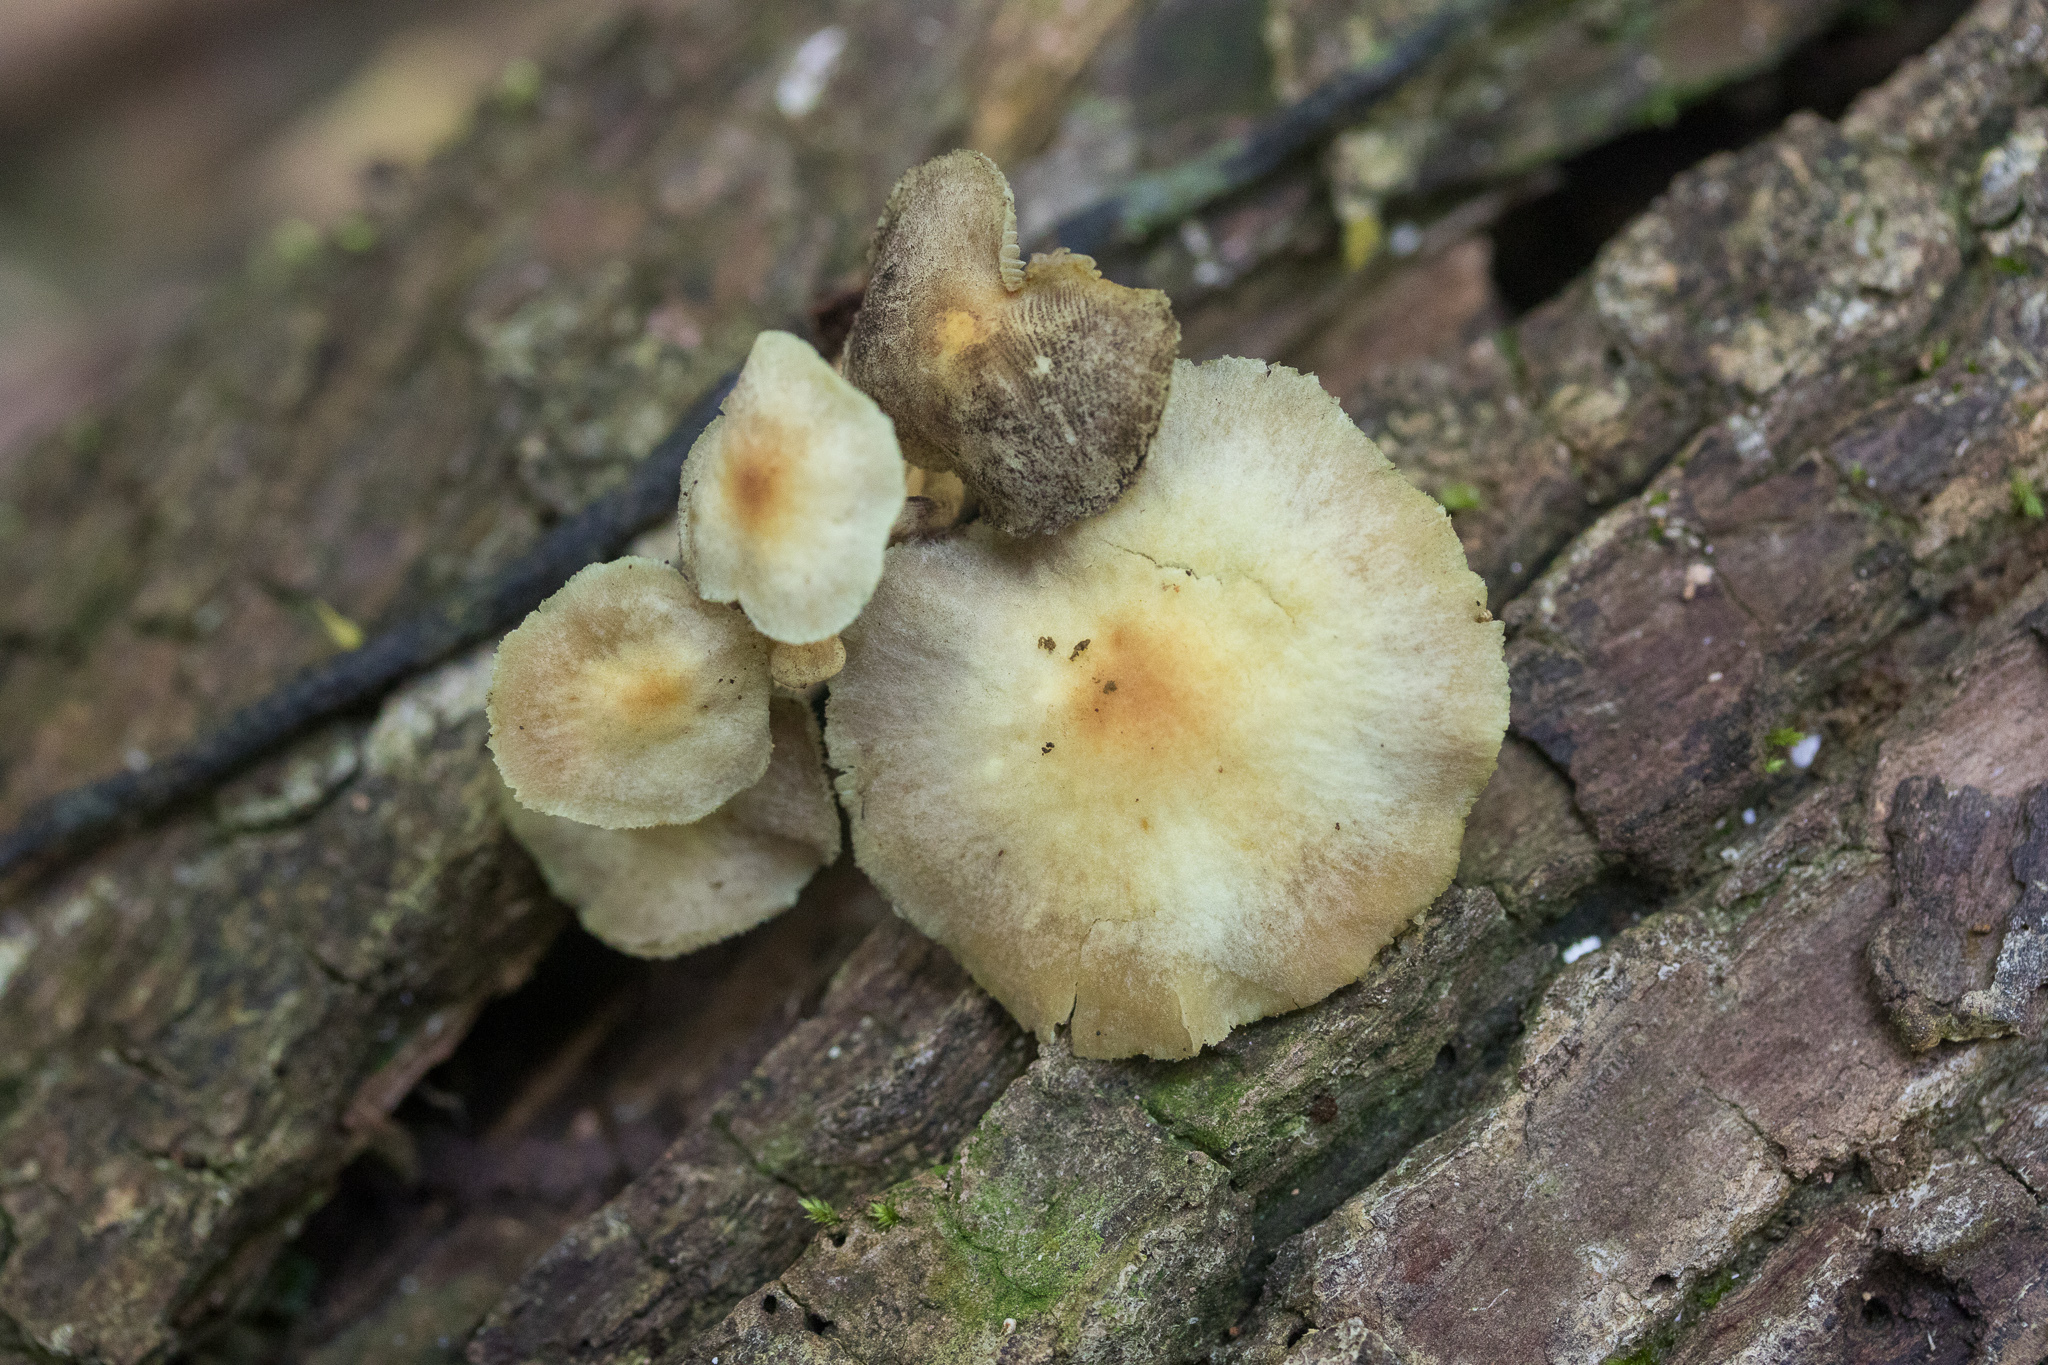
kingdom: Fungi
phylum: Basidiomycota
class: Agaricomycetes
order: Agaricales
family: Strophariaceae
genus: Hypholoma
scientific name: Hypholoma fasciculare
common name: Sulphur tuft
